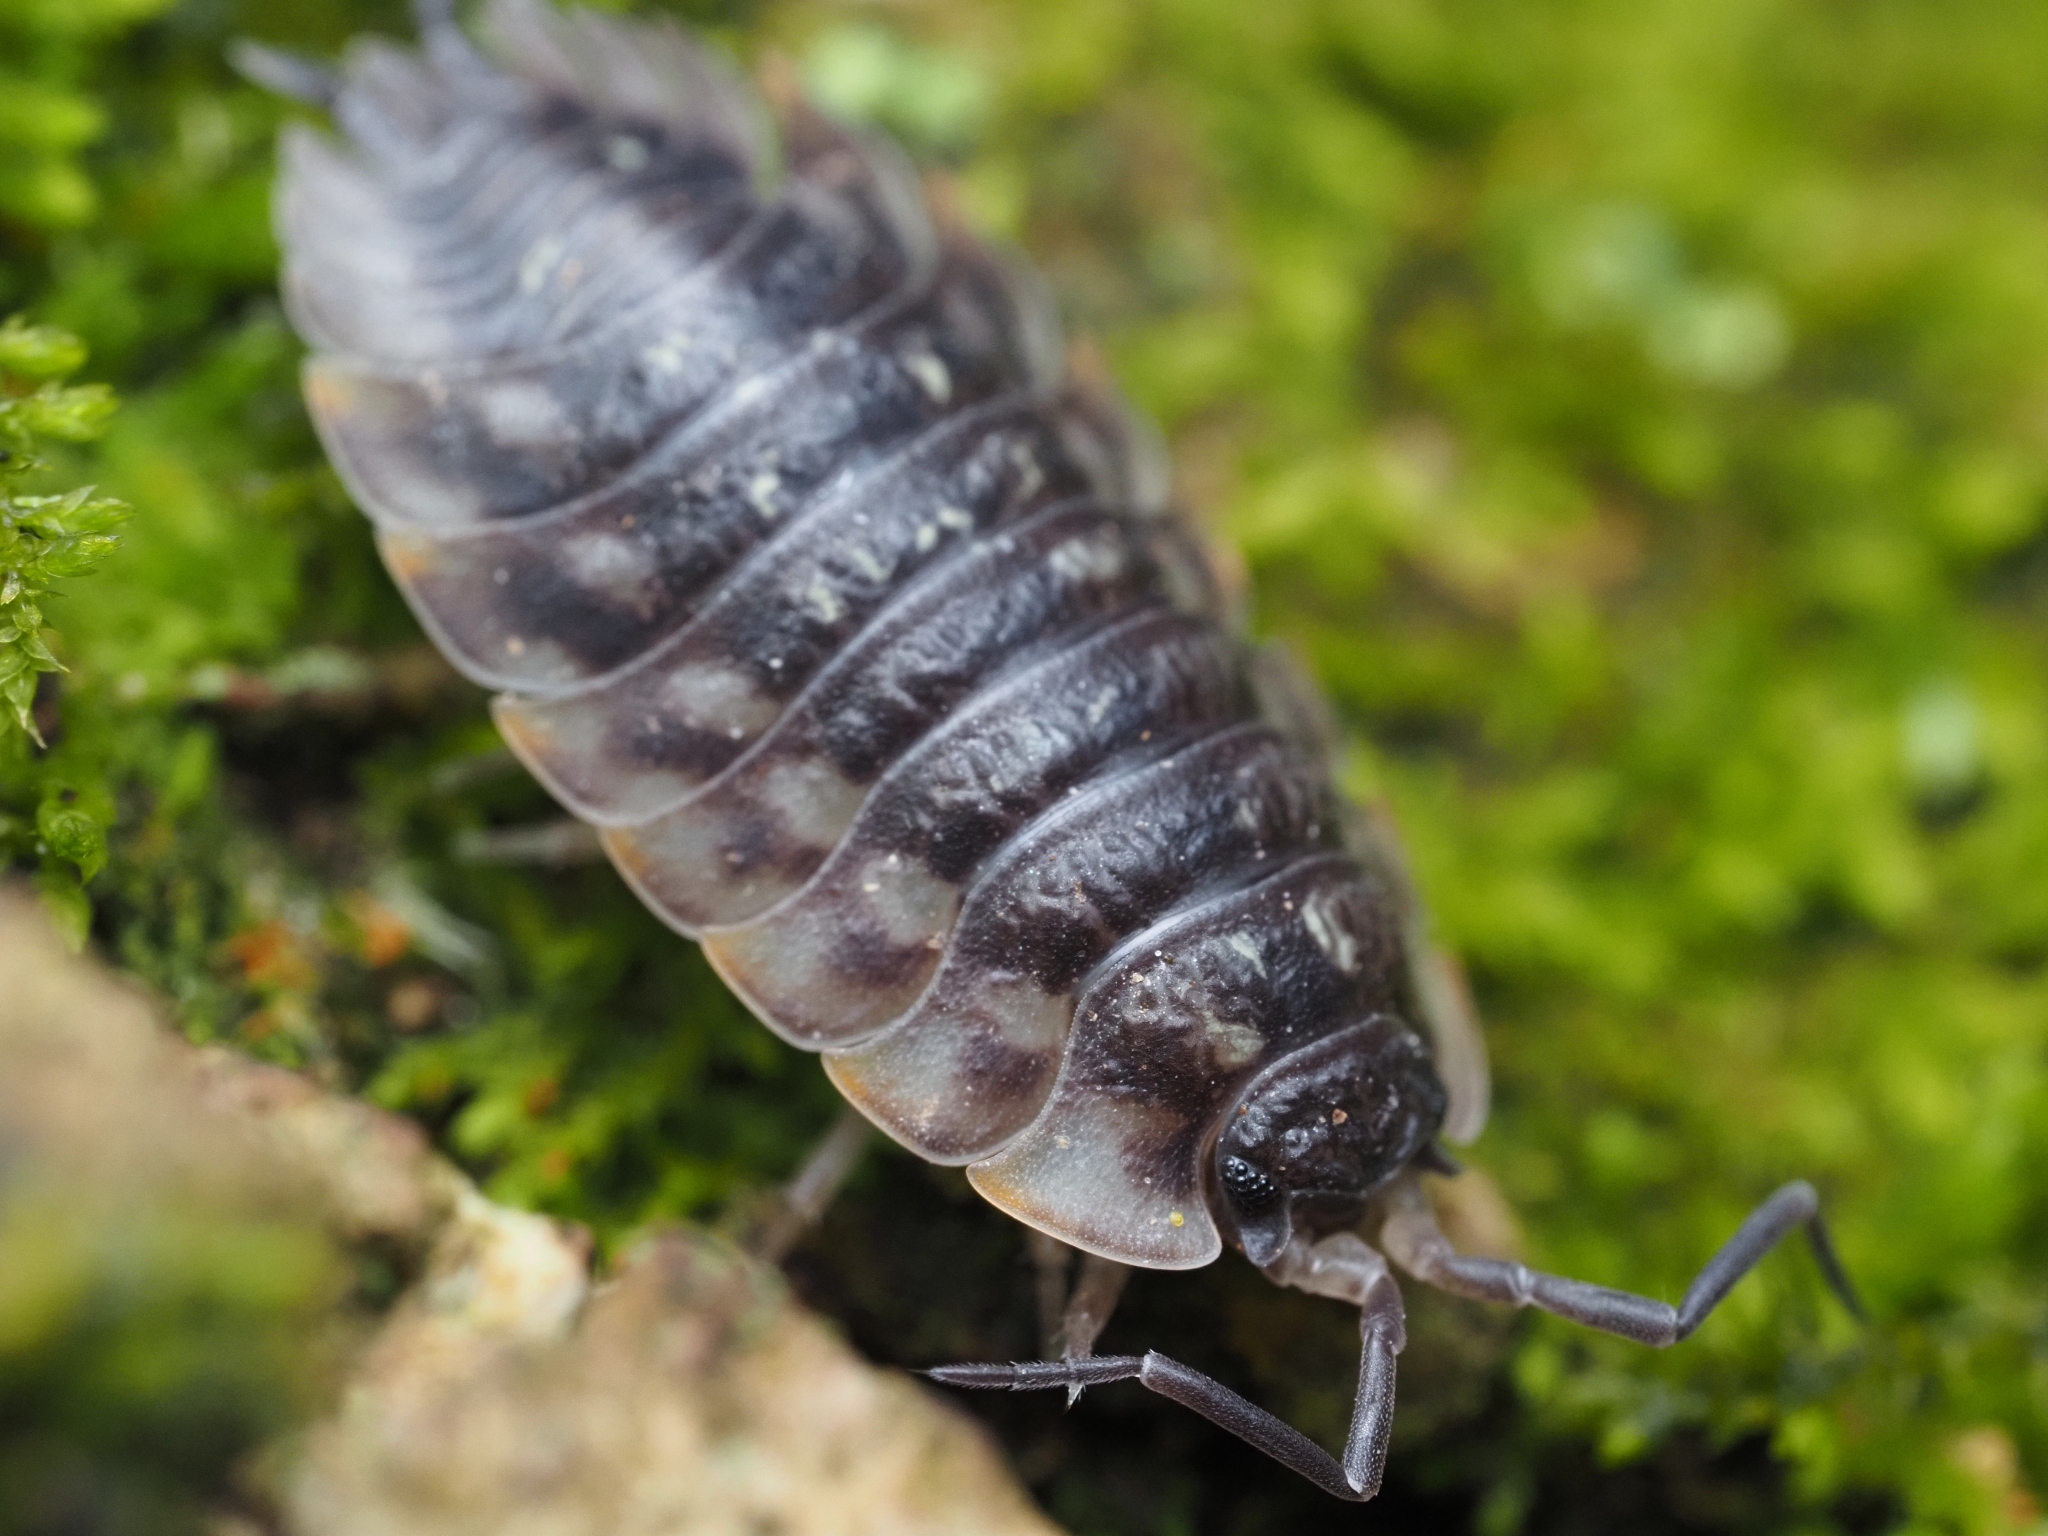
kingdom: Animalia
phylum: Arthropoda
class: Malacostraca
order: Isopoda
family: Oniscidae
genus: Oniscus
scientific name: Oniscus asellus
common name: Common shiny woodlouse
